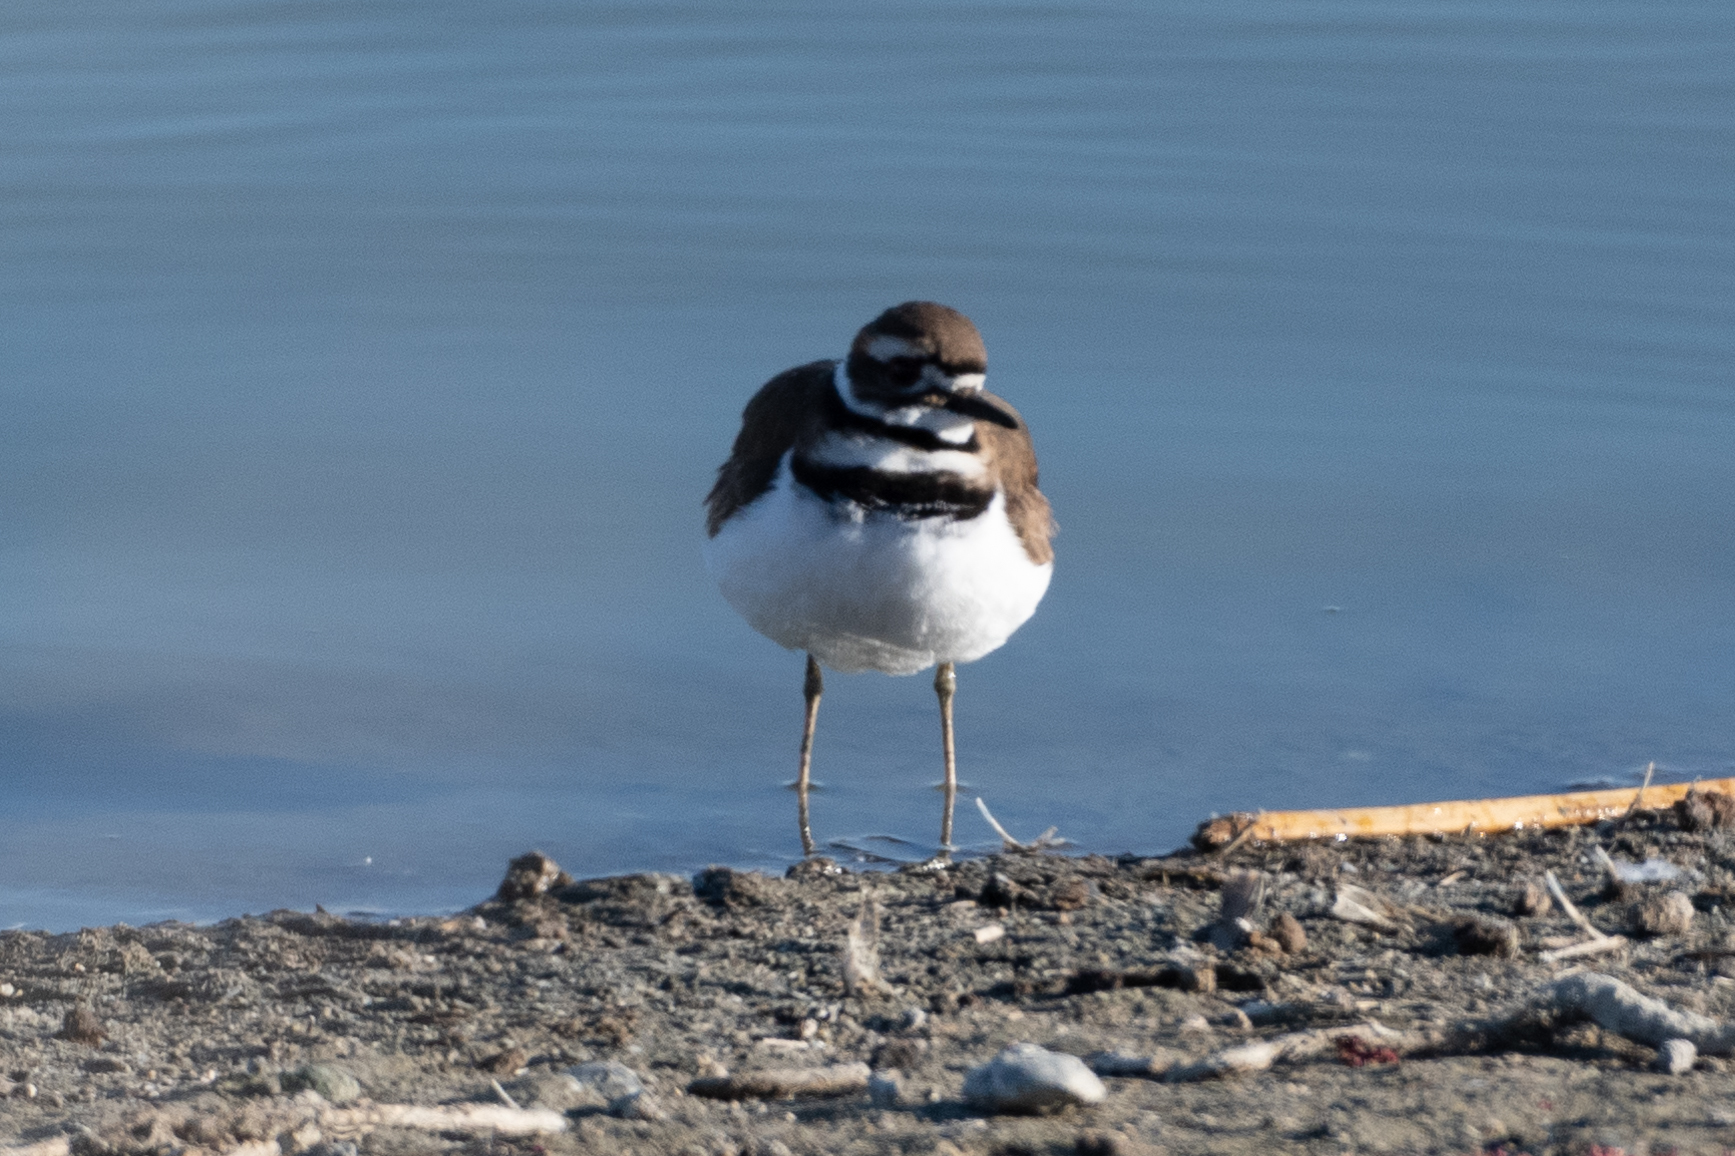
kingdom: Animalia
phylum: Chordata
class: Aves
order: Charadriiformes
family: Charadriidae
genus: Charadrius
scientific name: Charadrius vociferus
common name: Killdeer
